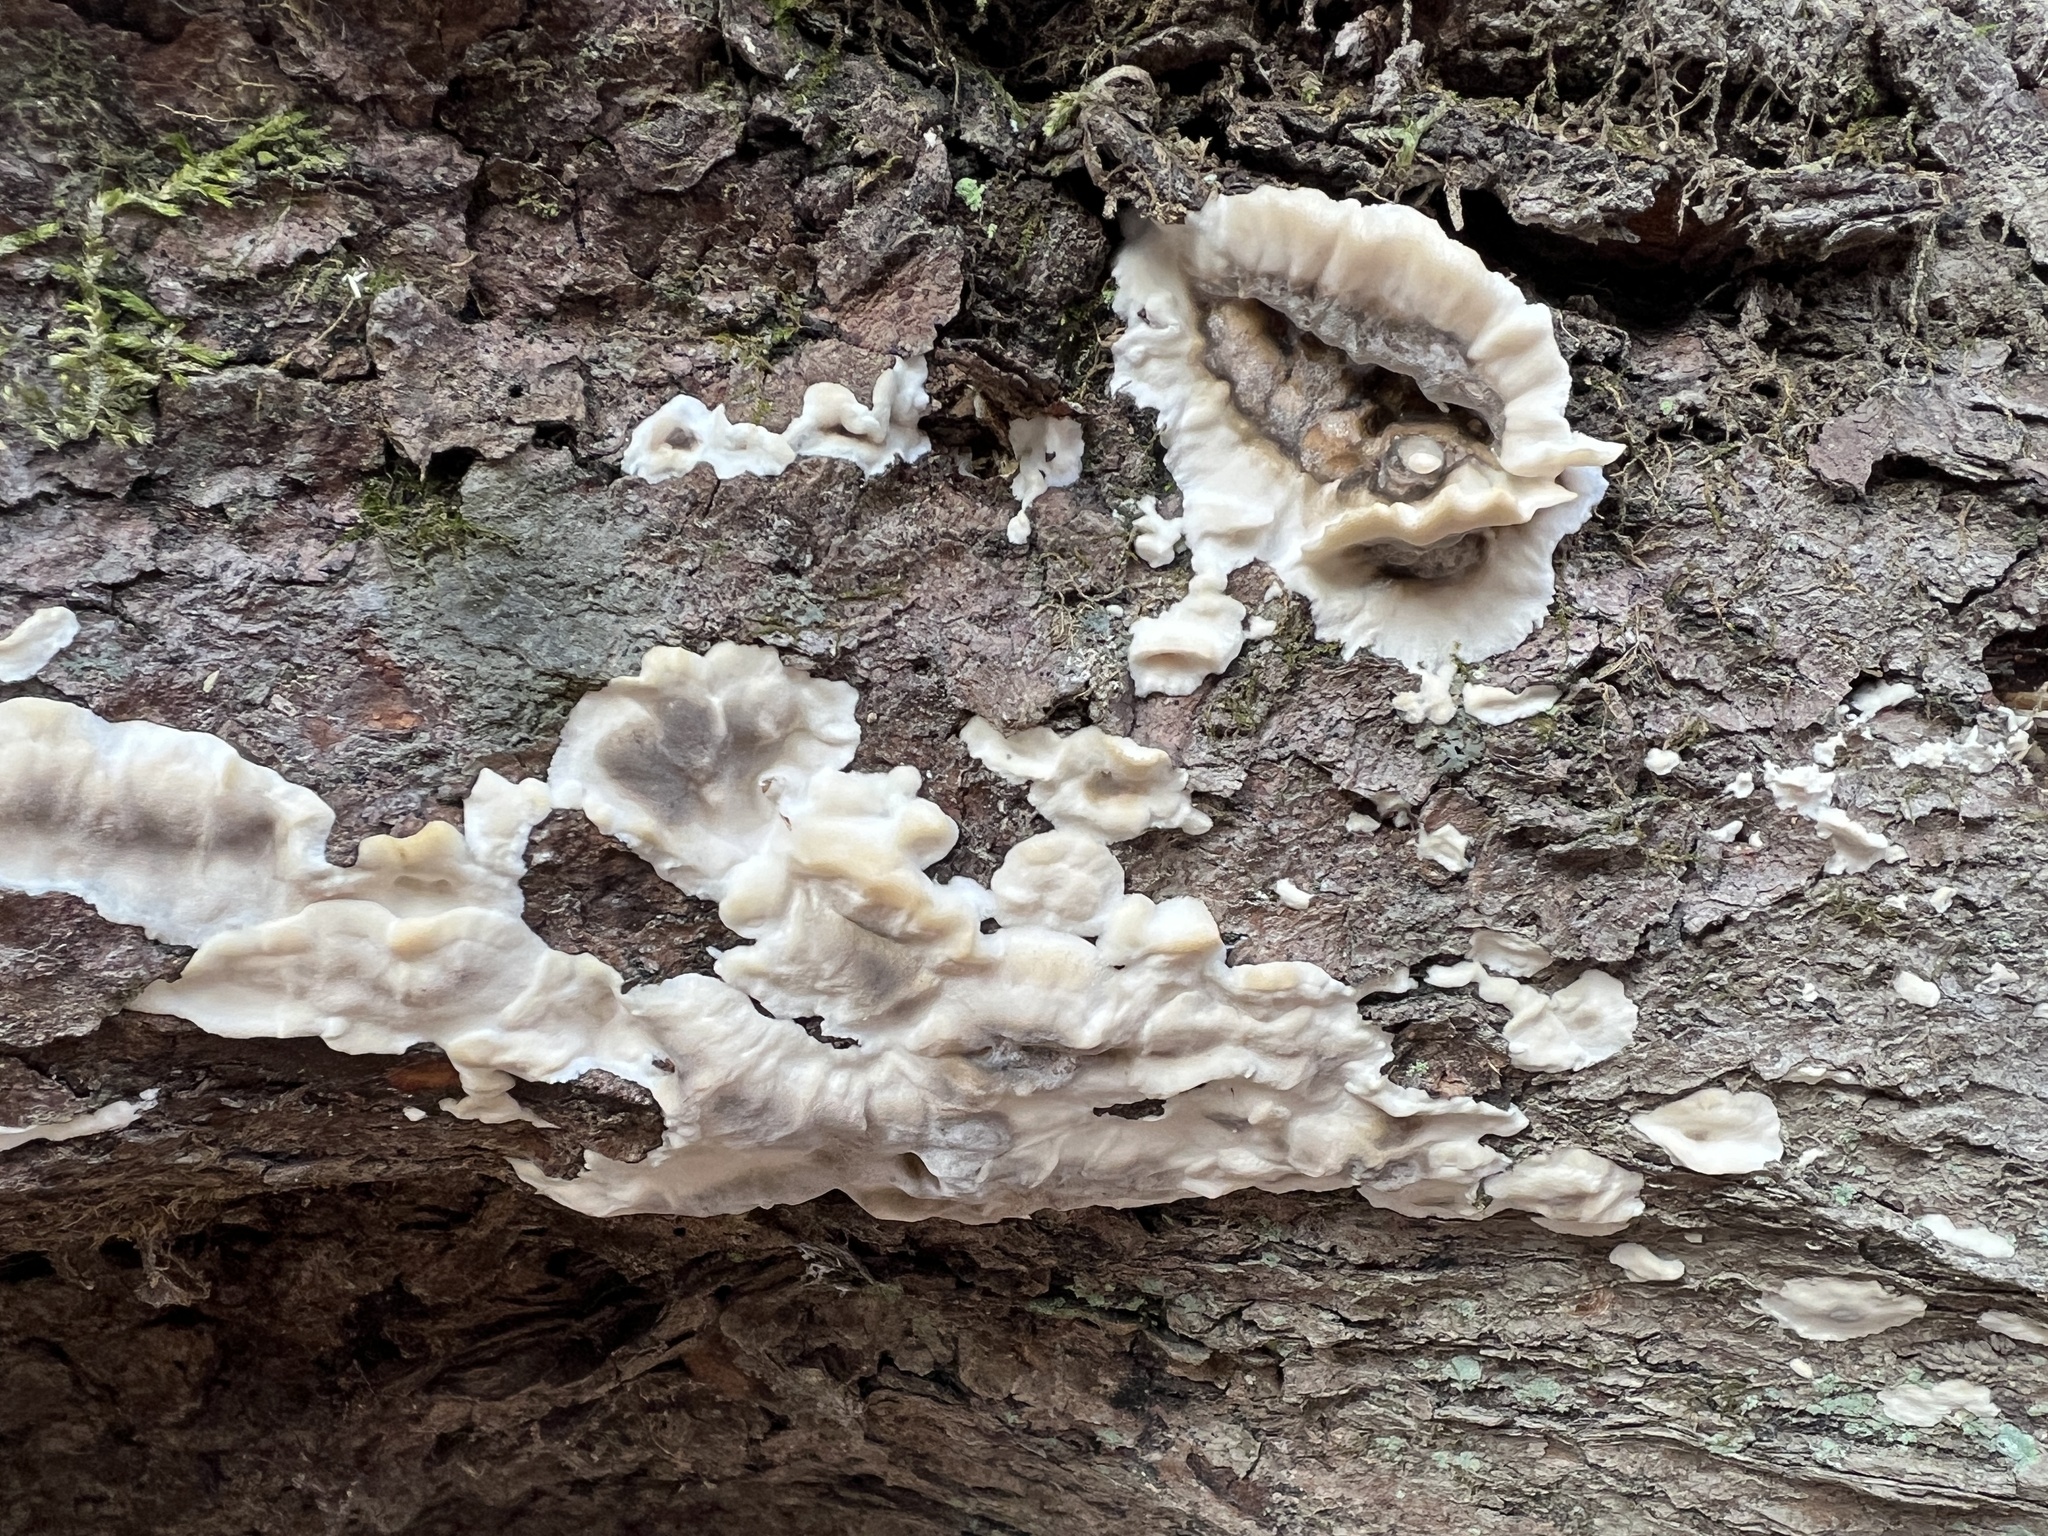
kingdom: Fungi
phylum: Basidiomycota
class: Agaricomycetes
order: Polyporales
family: Phanerochaetaceae
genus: Bjerkandera
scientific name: Bjerkandera adusta
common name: Smoky bracket
